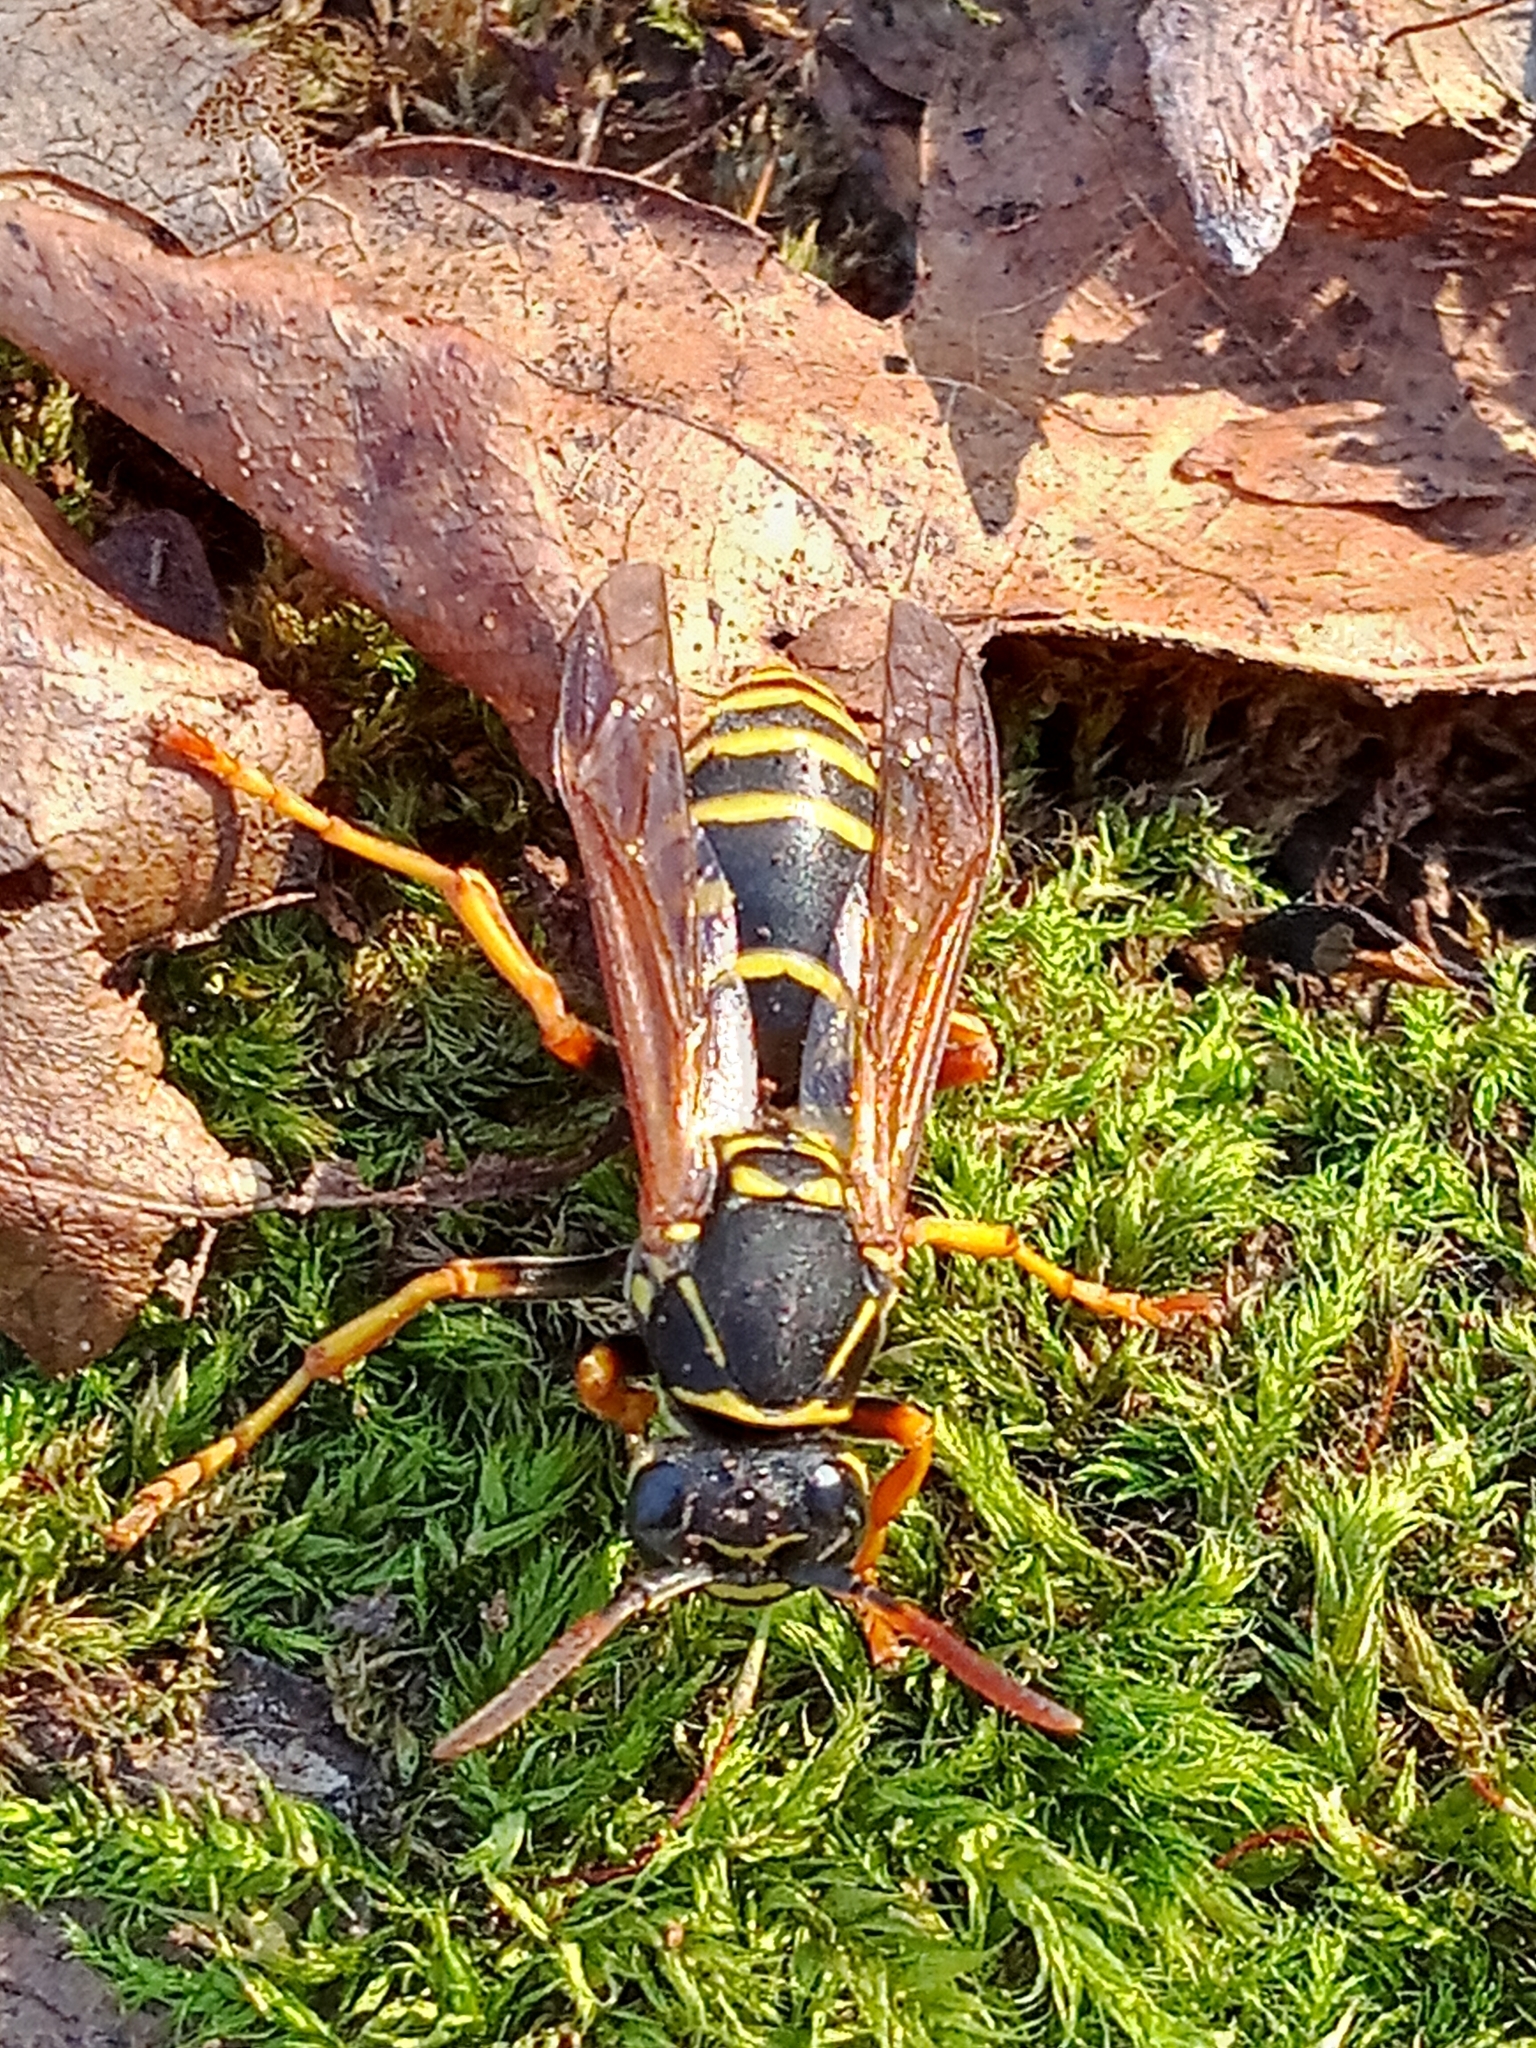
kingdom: Animalia
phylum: Arthropoda
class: Insecta
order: Hymenoptera
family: Eumenidae
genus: Polistes
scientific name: Polistes nimpha
